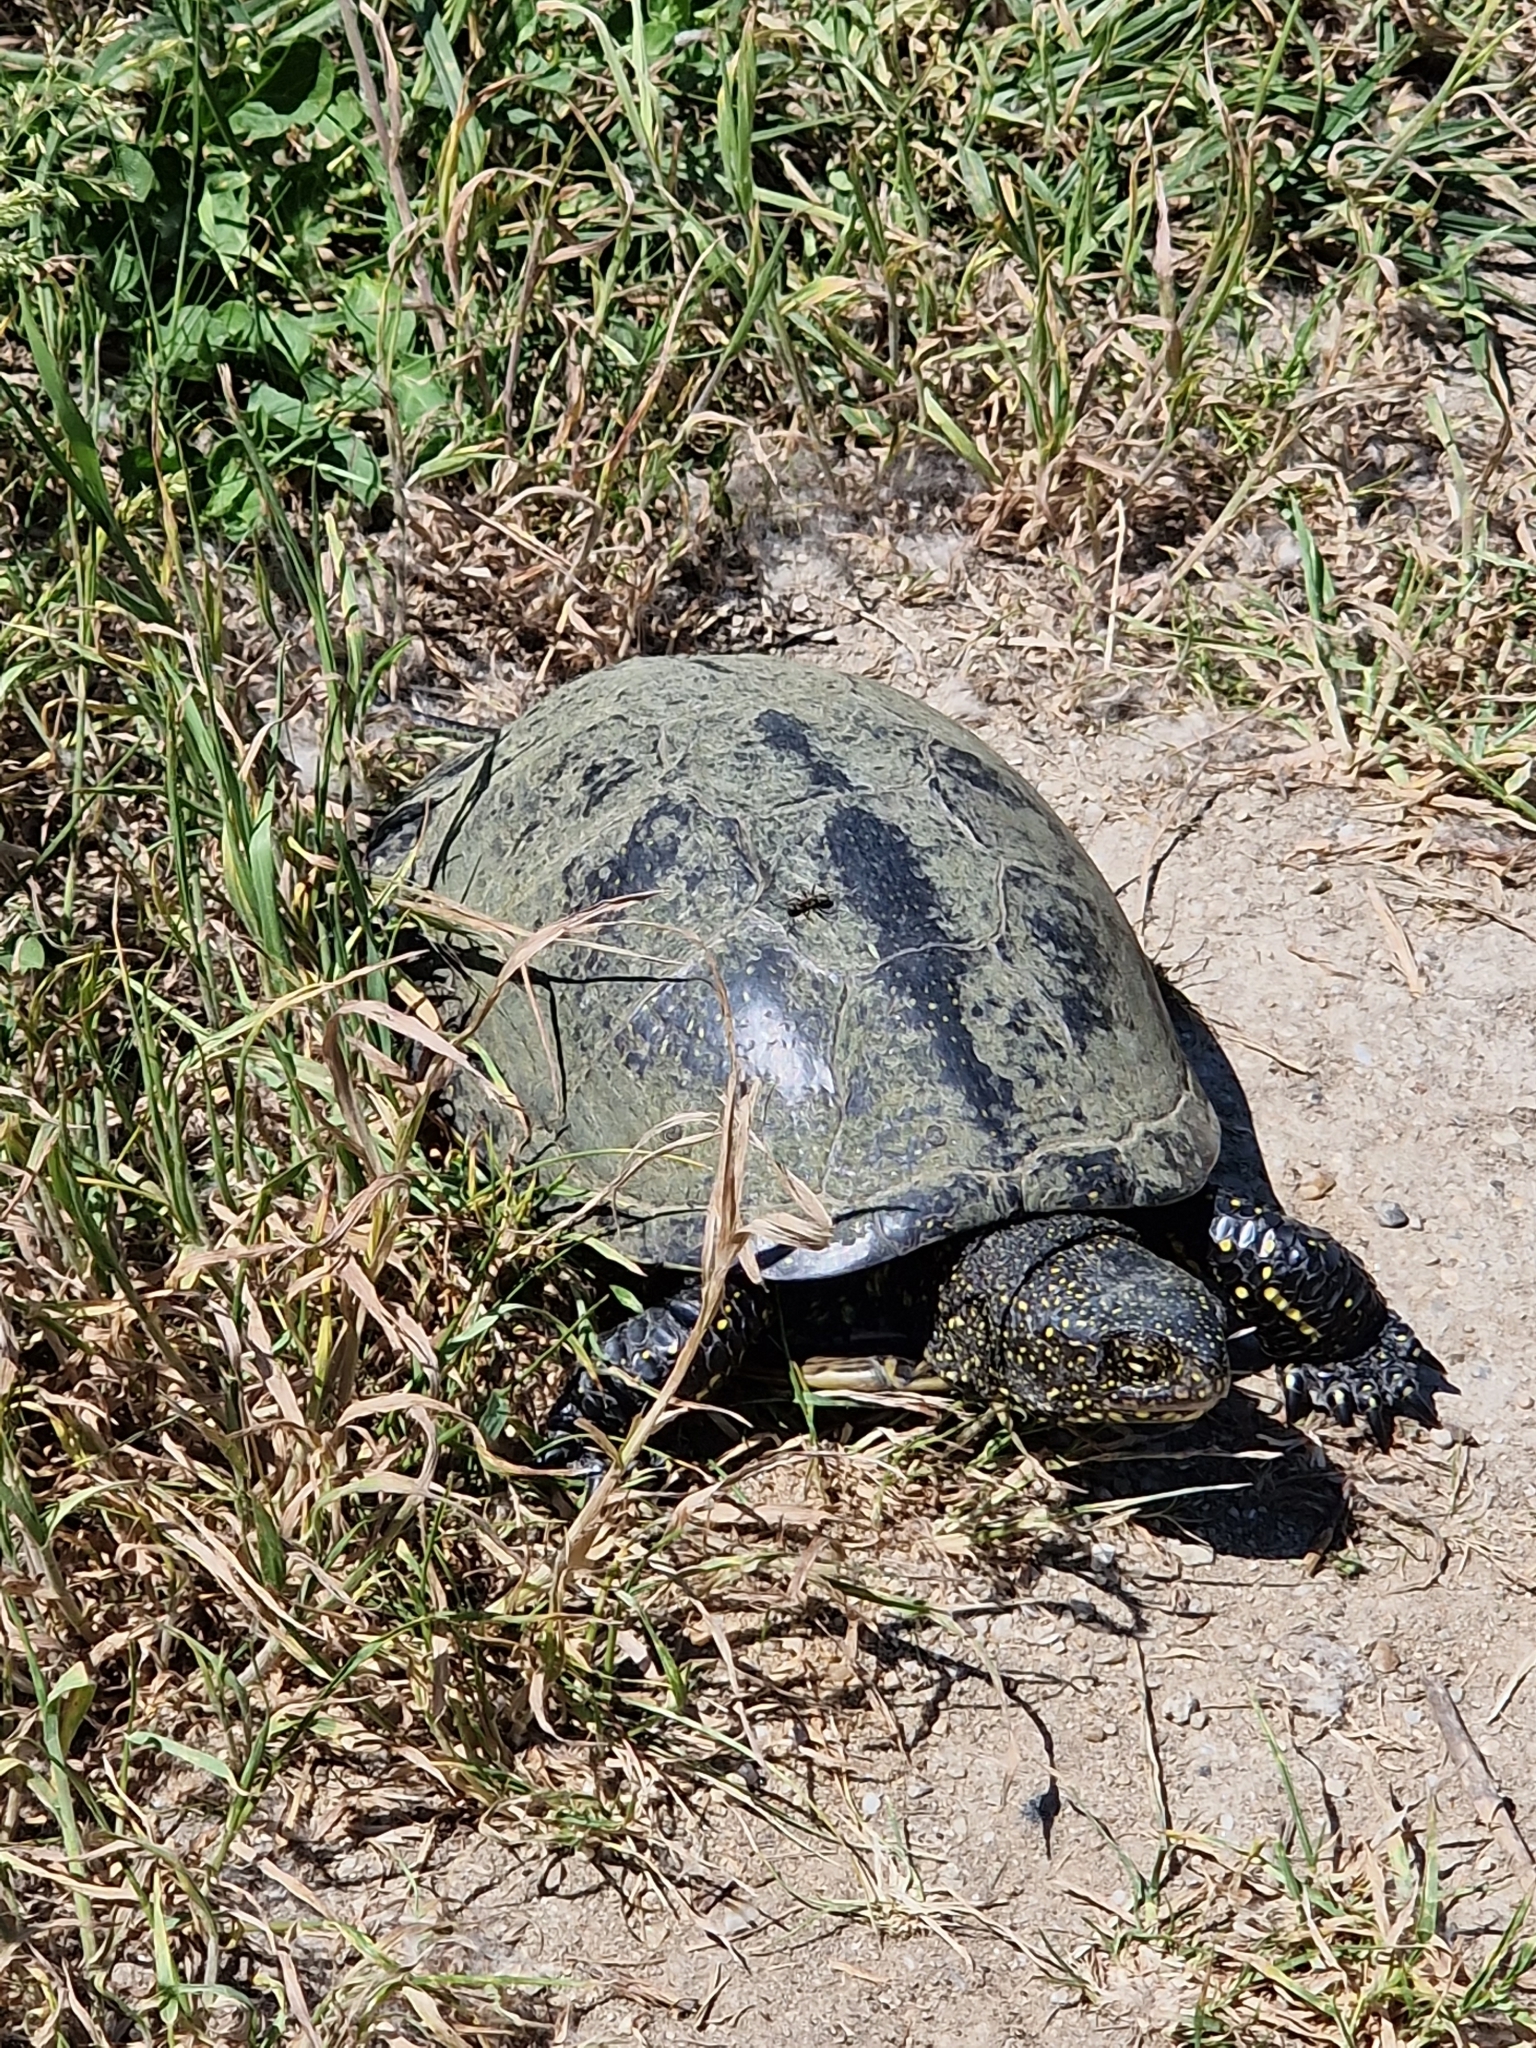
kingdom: Animalia
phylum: Chordata
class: Testudines
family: Emydidae
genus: Emys
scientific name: Emys orbicularis
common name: European pond turtle
